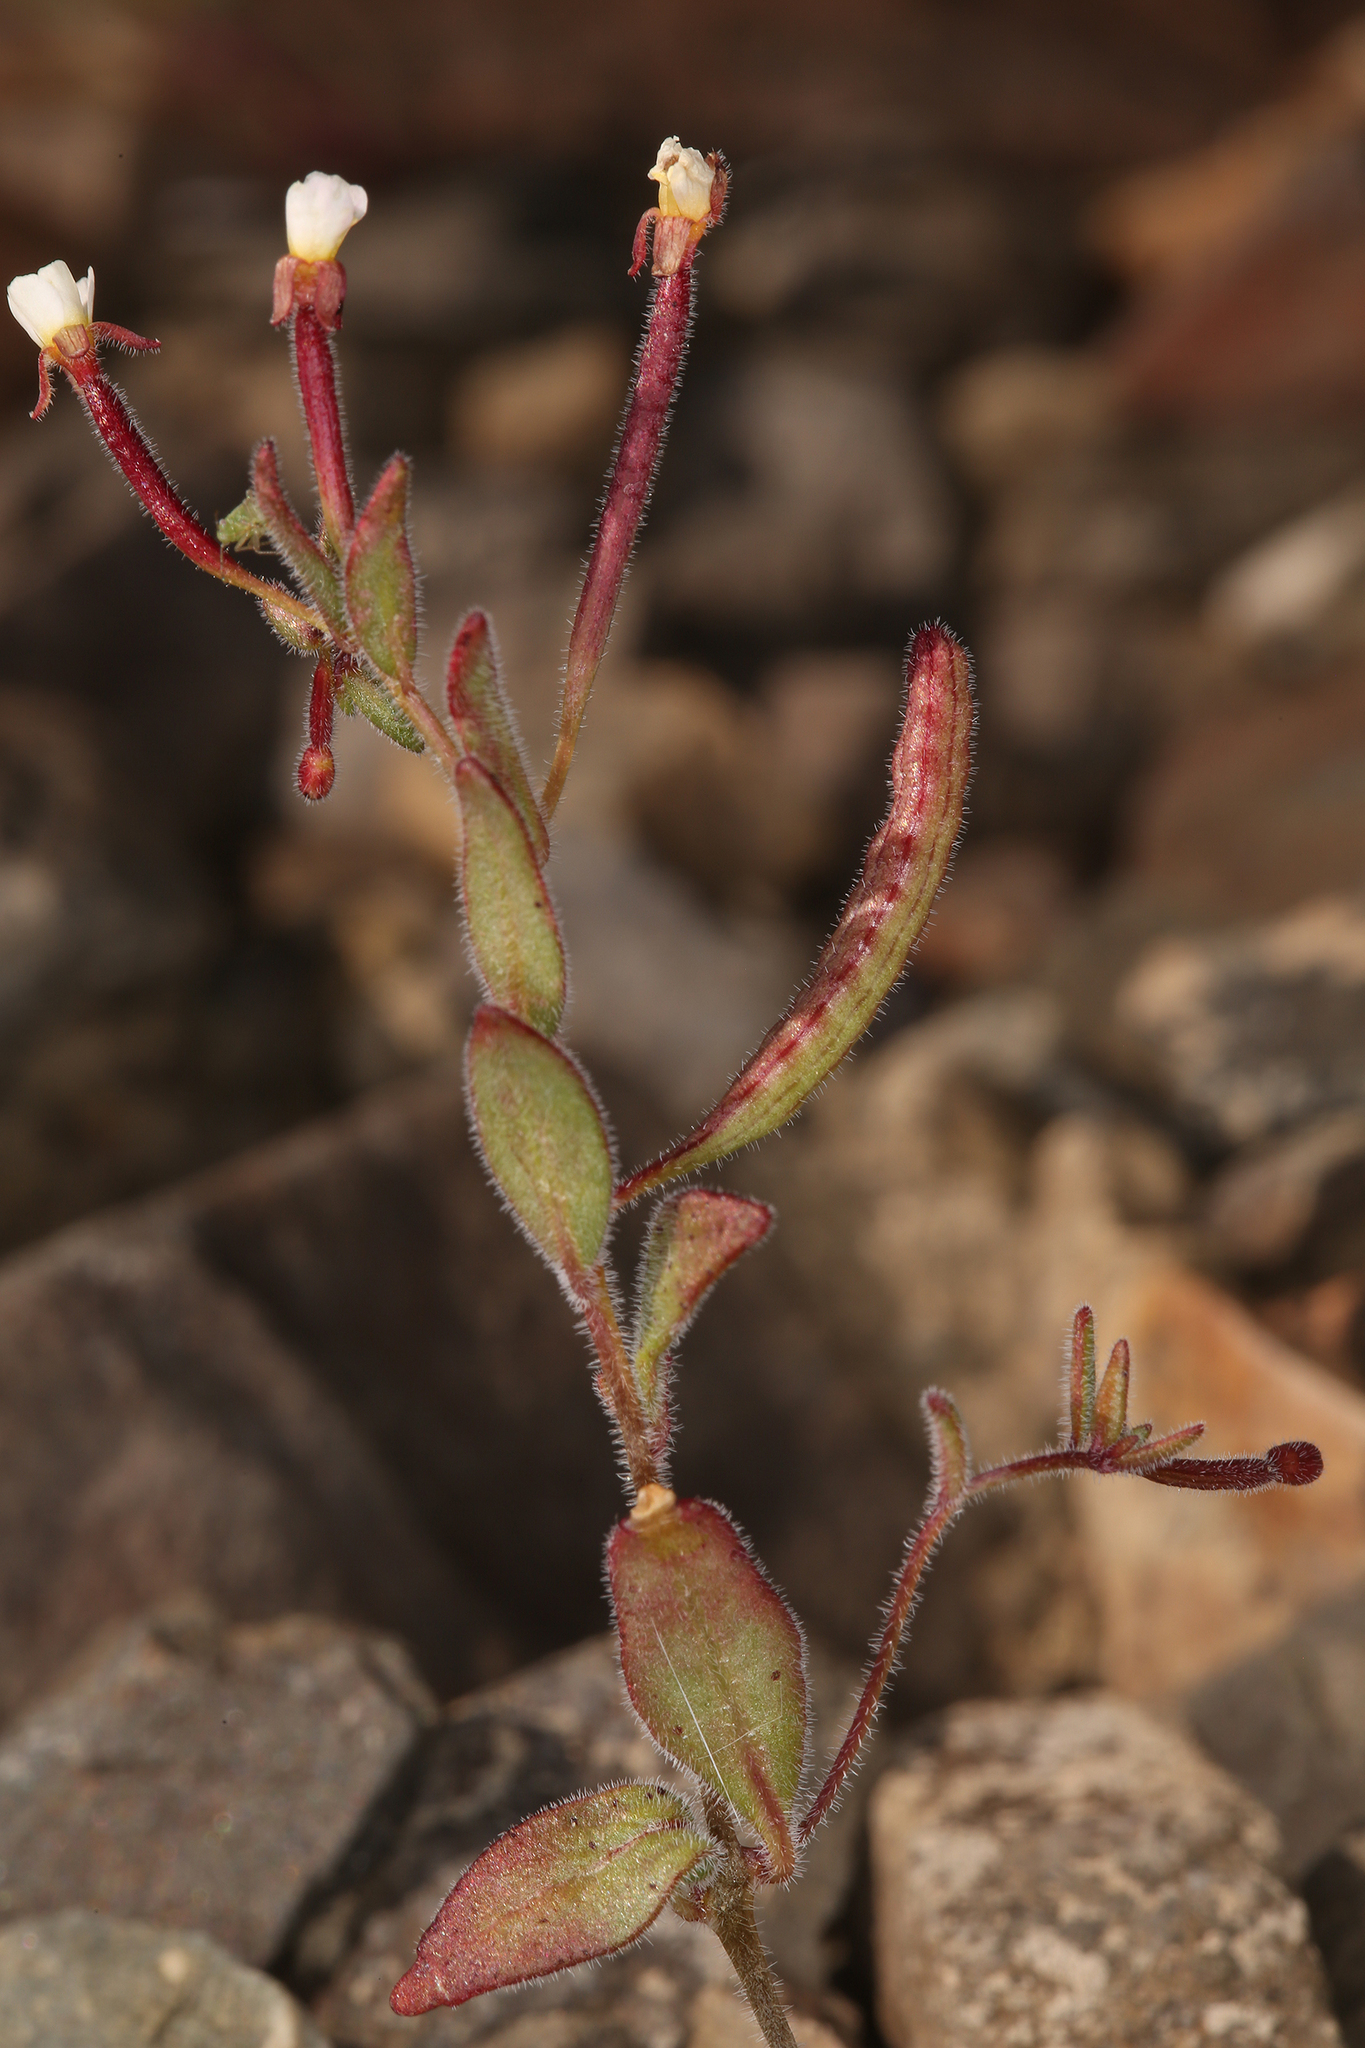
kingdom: Plantae
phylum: Tracheophyta
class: Magnoliopsida
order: Myrtales
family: Onagraceae
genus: Chylismiella
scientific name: Chylismiella pterosperma
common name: Wingfruit suncup
